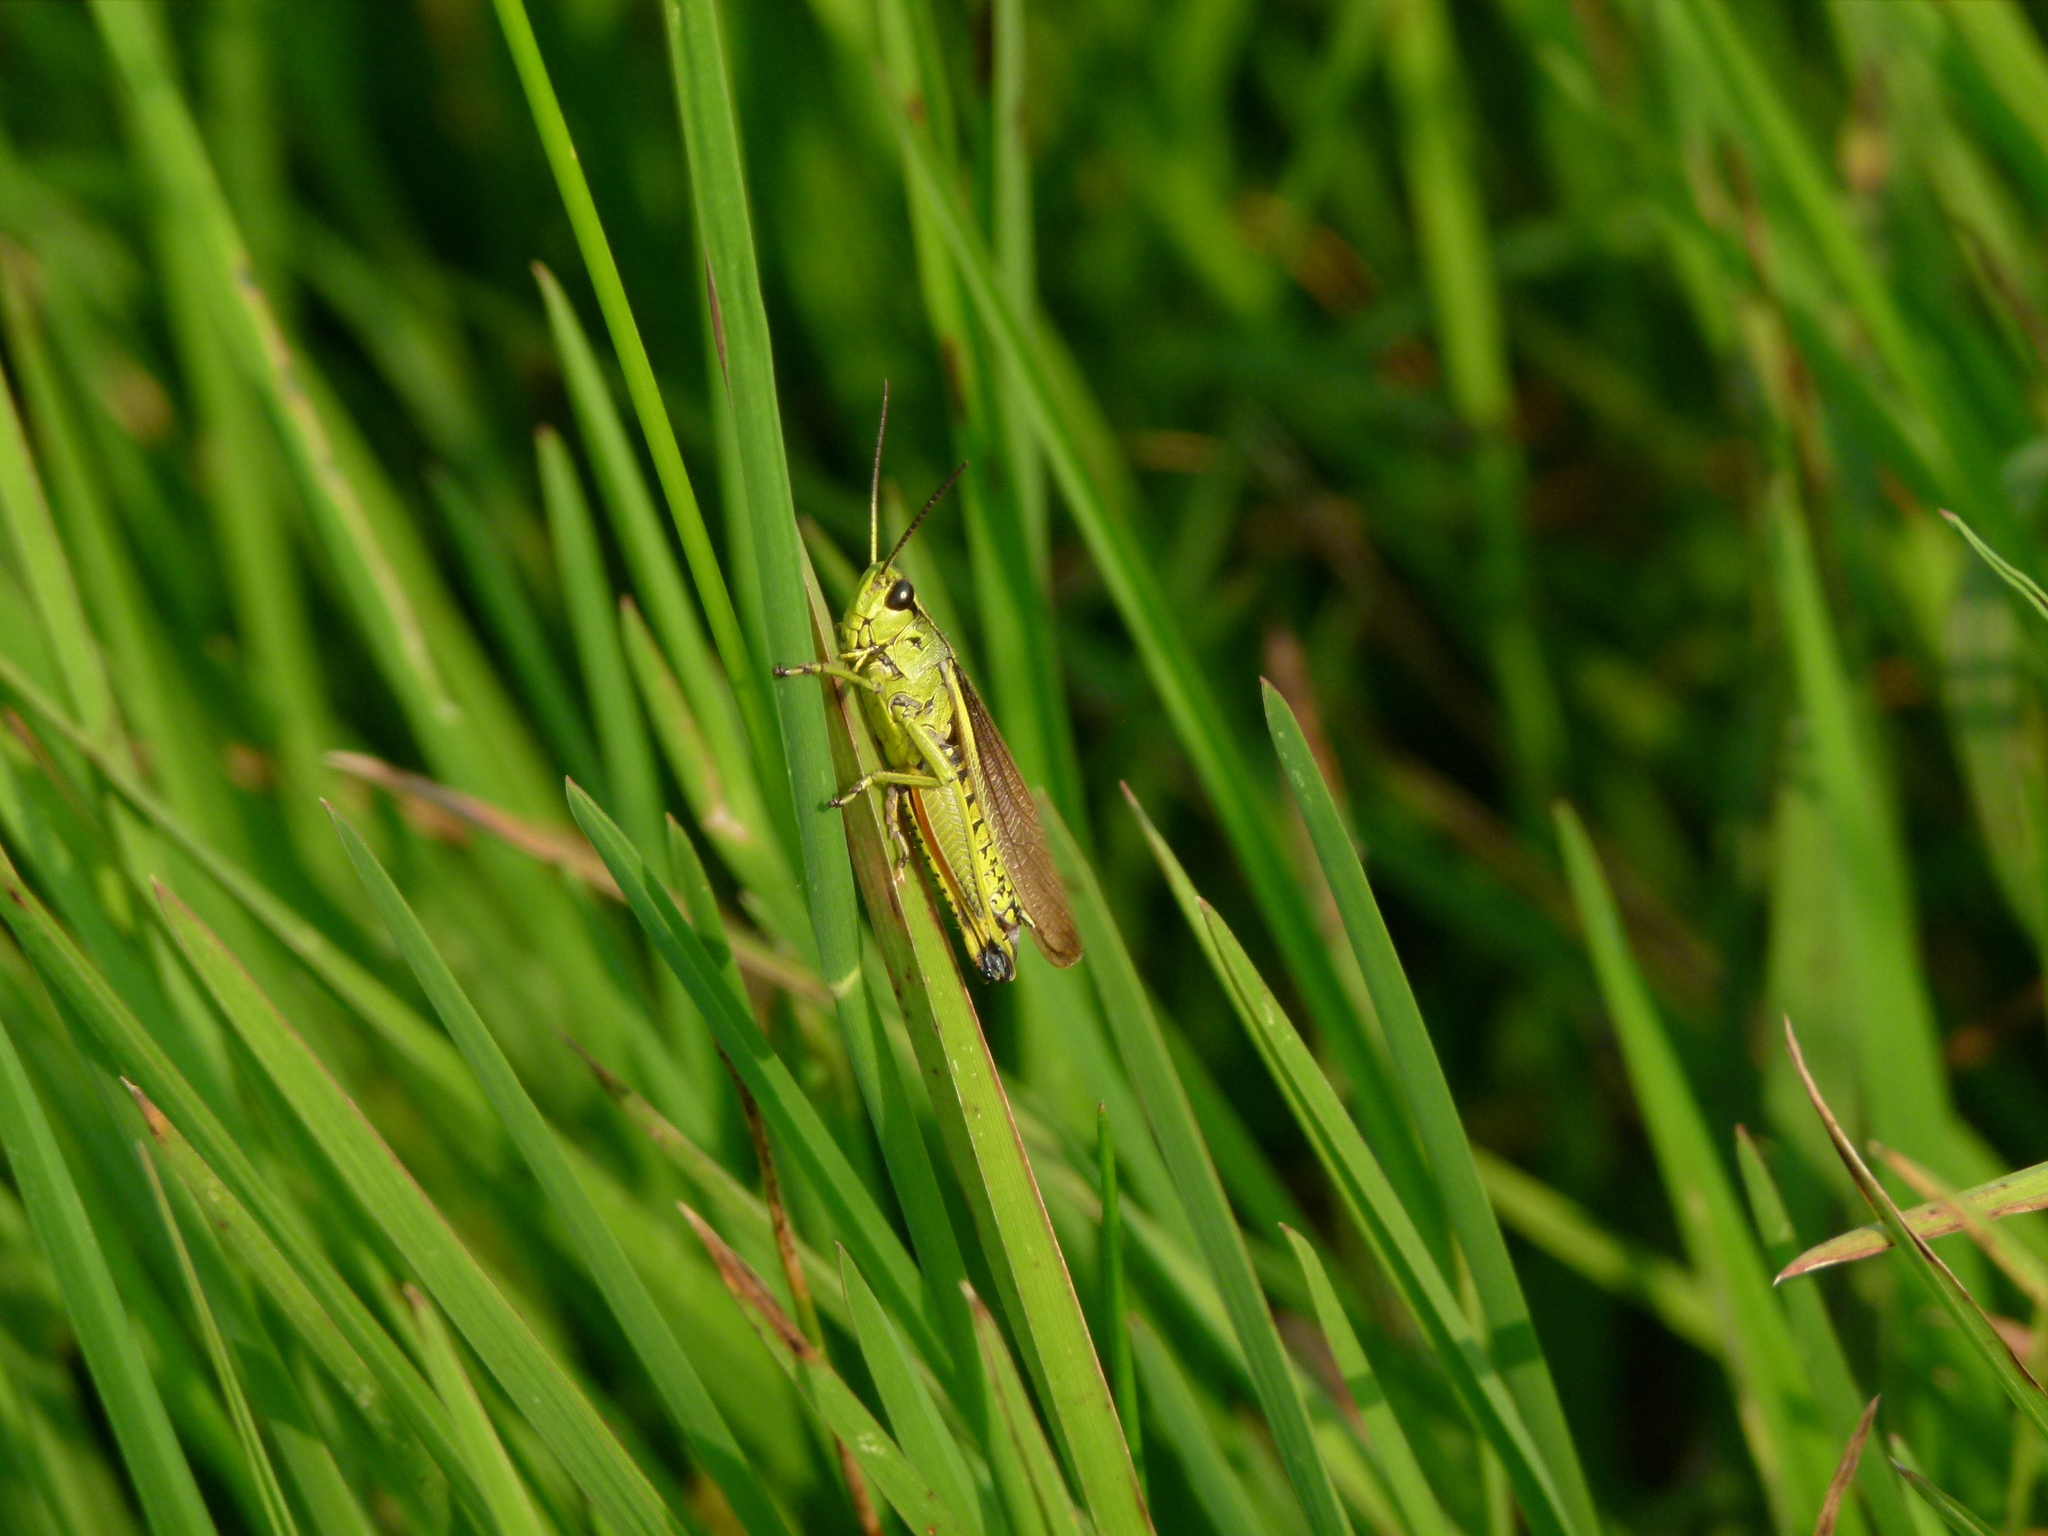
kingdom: Animalia
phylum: Arthropoda
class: Insecta
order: Orthoptera
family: Acrididae
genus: Stethophyma
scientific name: Stethophyma grossum
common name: Large marsh grasshopper
